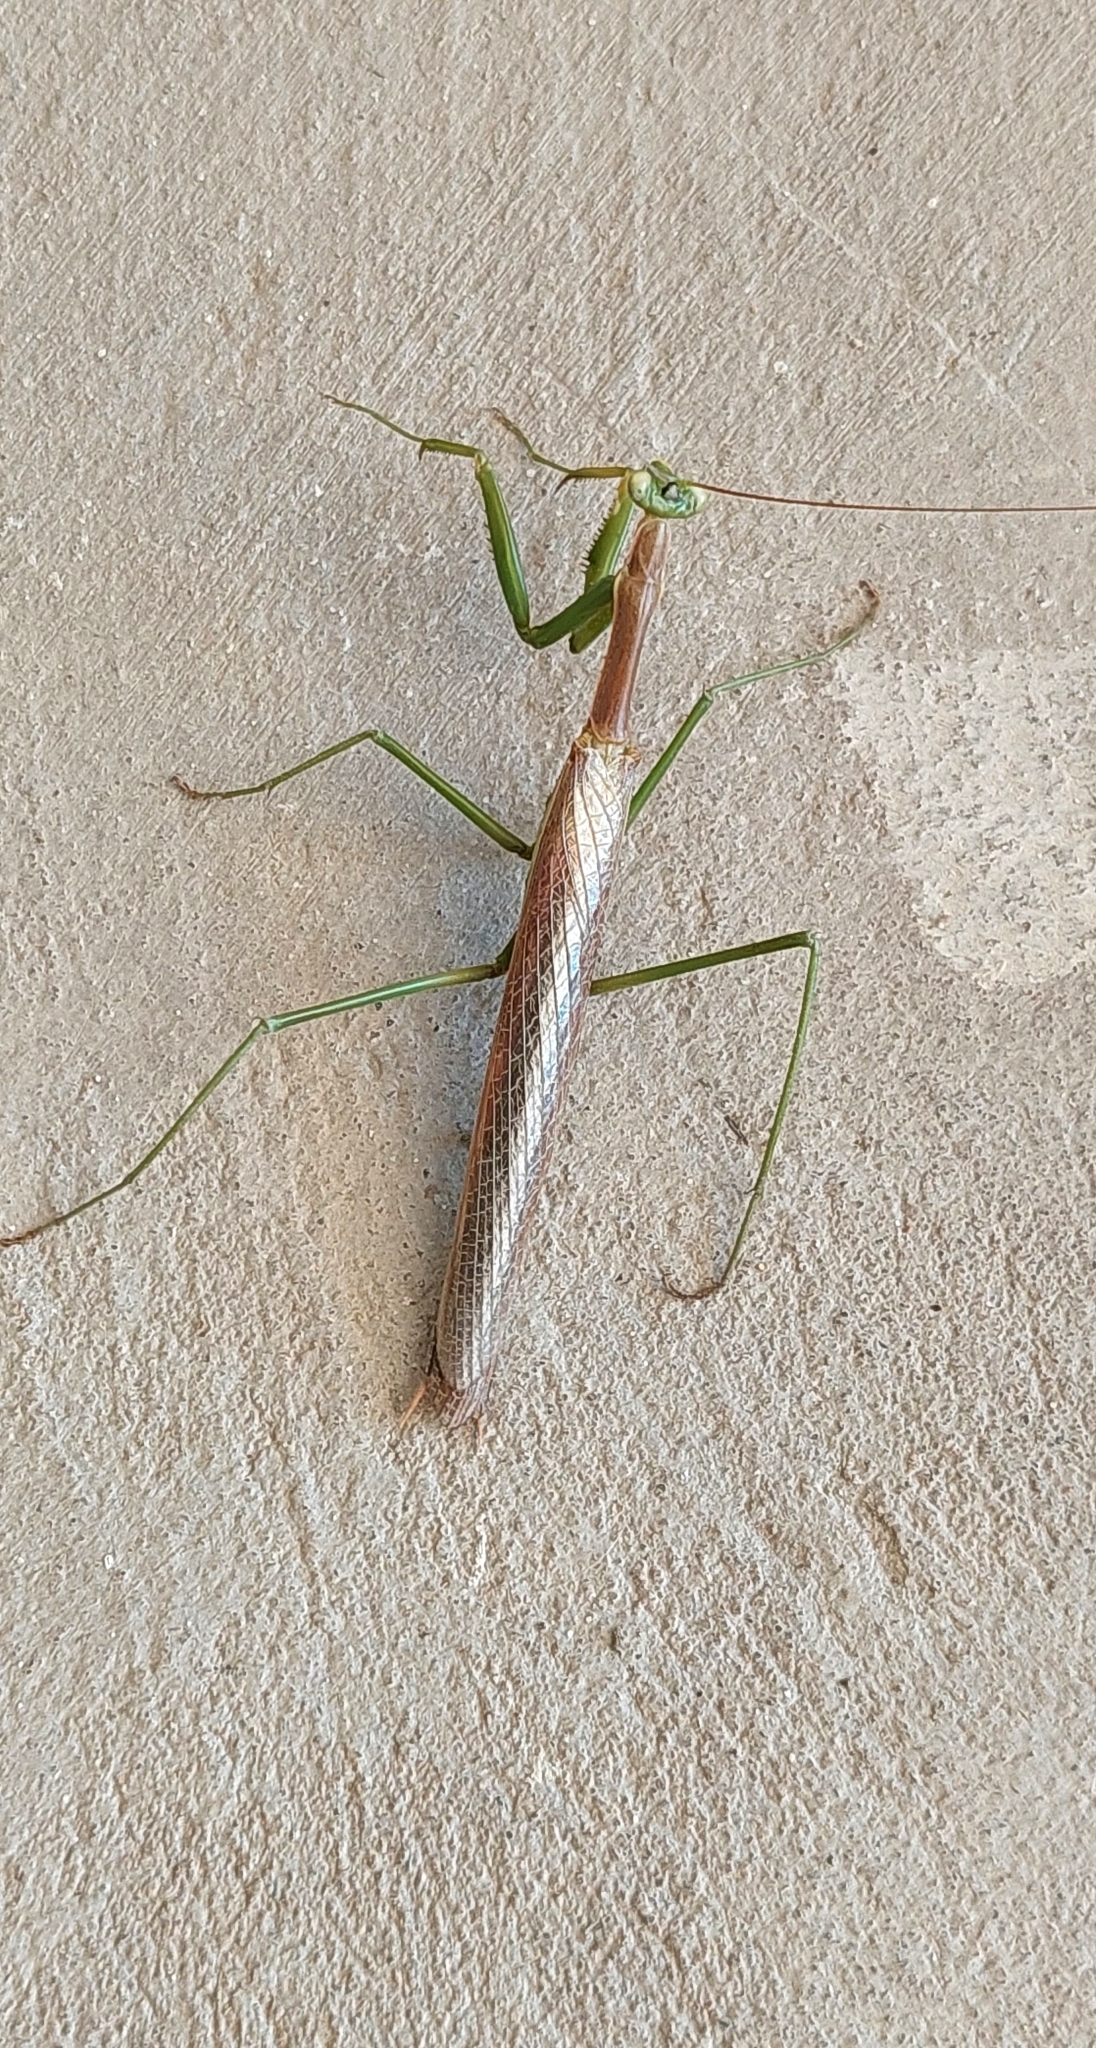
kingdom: Animalia
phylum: Arthropoda
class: Insecta
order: Mantodea
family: Coptopterygidae
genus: Coptopteryx
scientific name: Coptopteryx gayi
